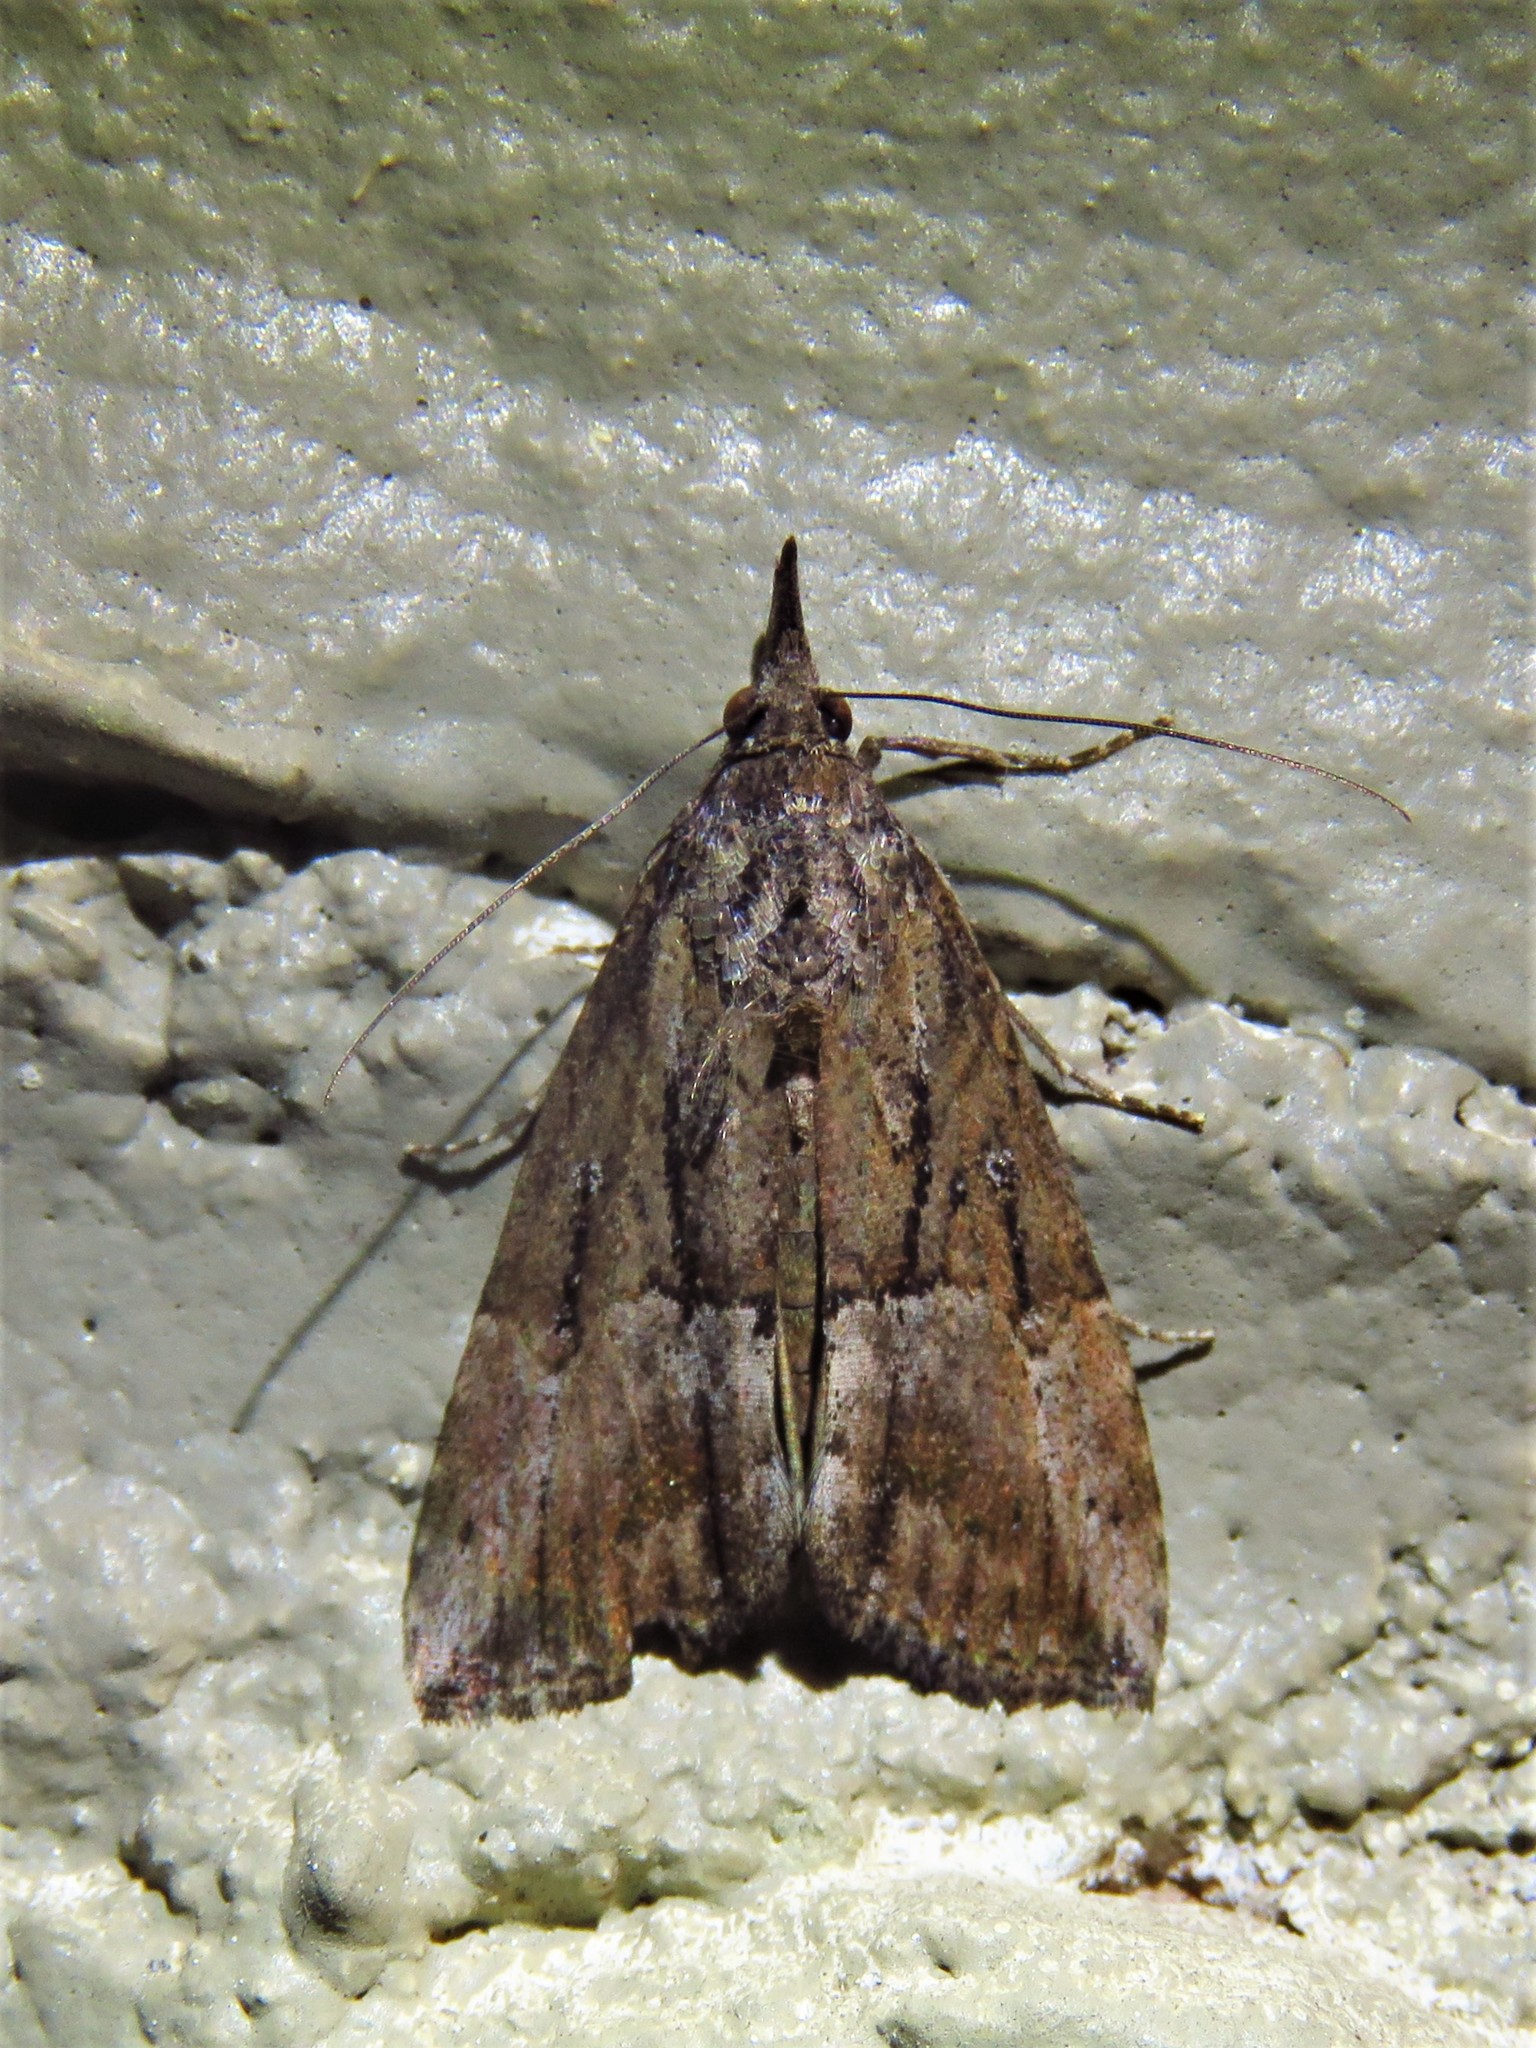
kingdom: Animalia
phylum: Arthropoda
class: Insecta
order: Lepidoptera
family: Erebidae
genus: Hypena
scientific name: Hypena scabra
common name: Green cloverworm
